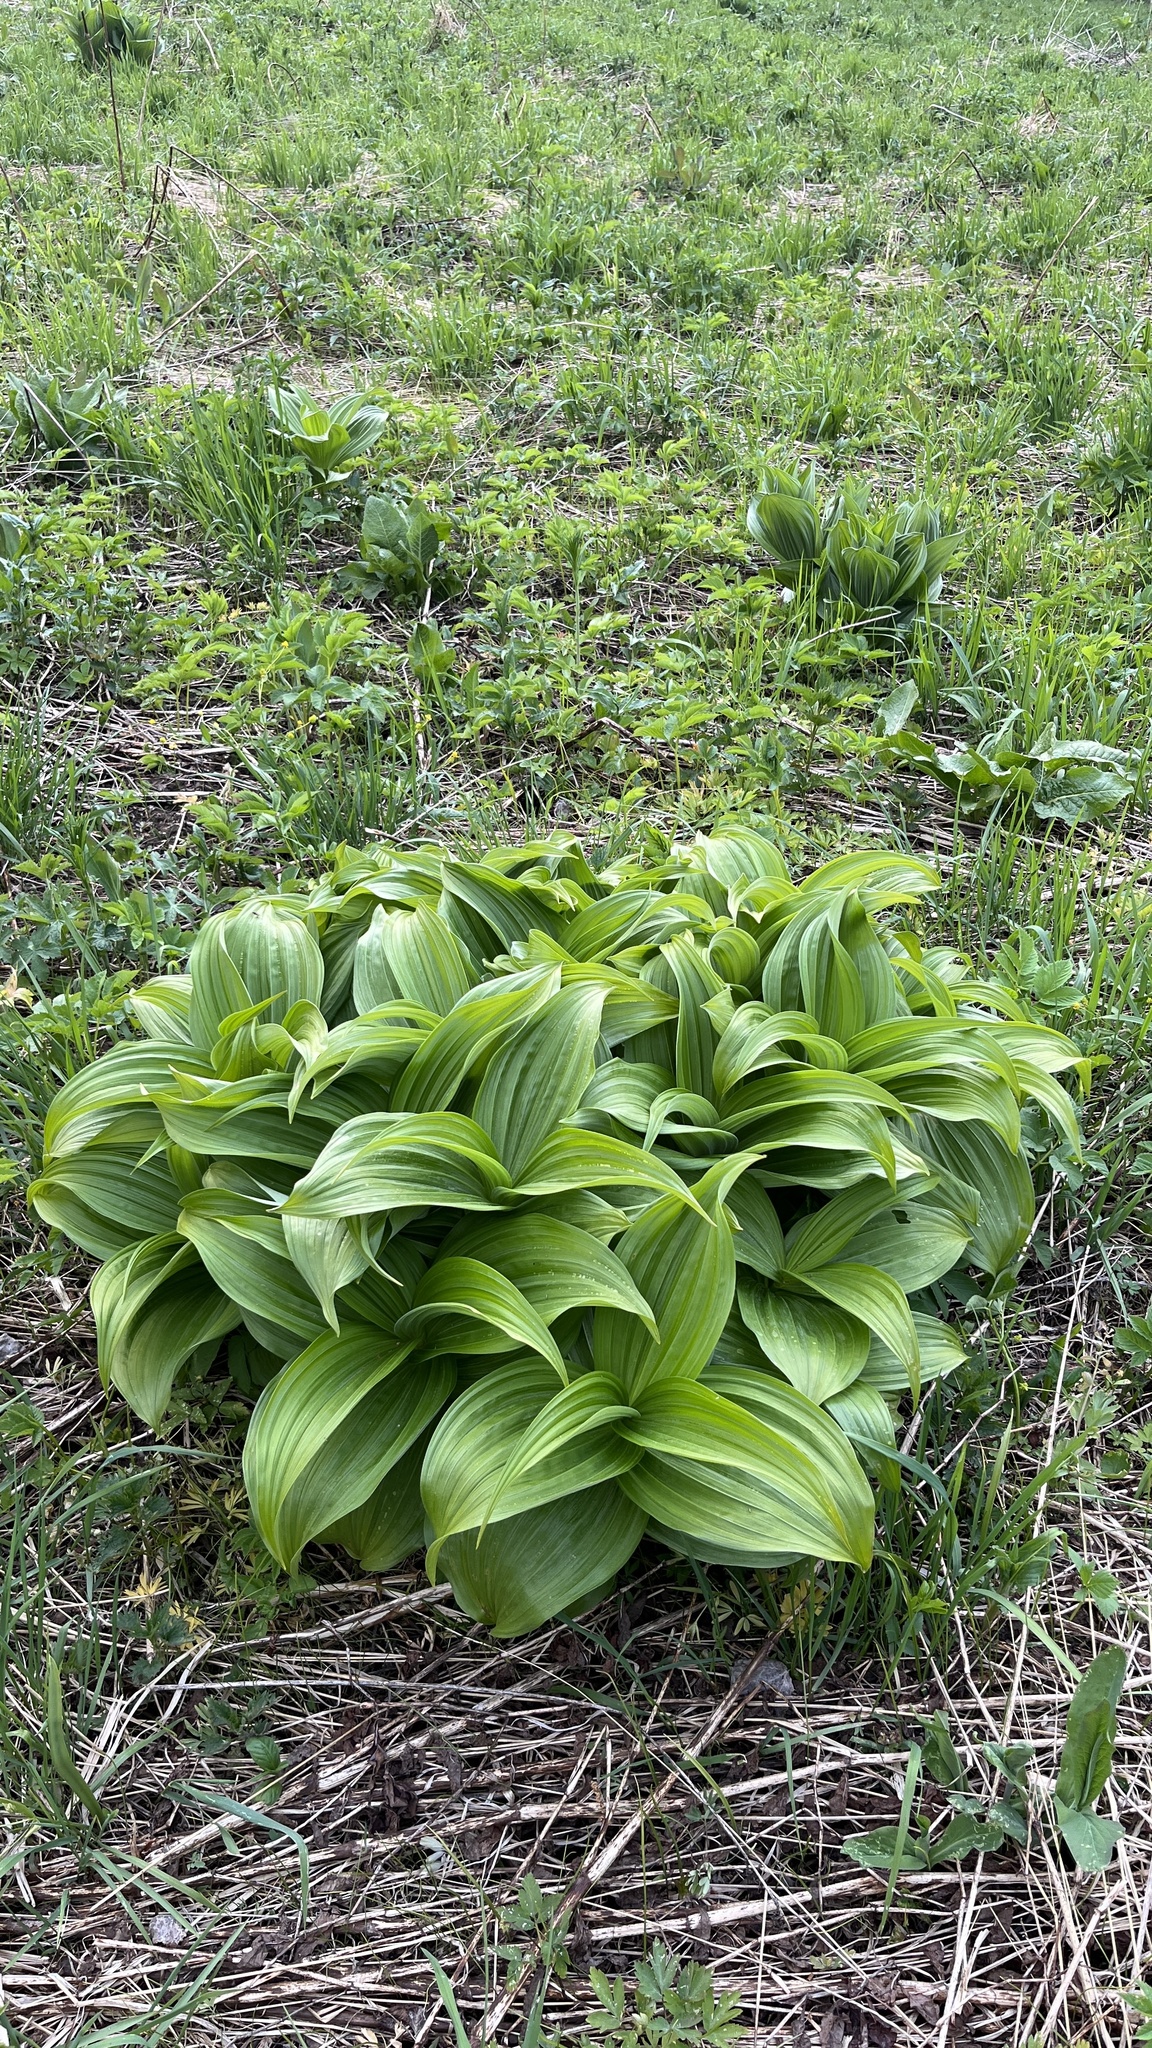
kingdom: Plantae
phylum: Tracheophyta
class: Liliopsida
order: Liliales
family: Melanthiaceae
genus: Veratrum
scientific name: Veratrum lobelianum
